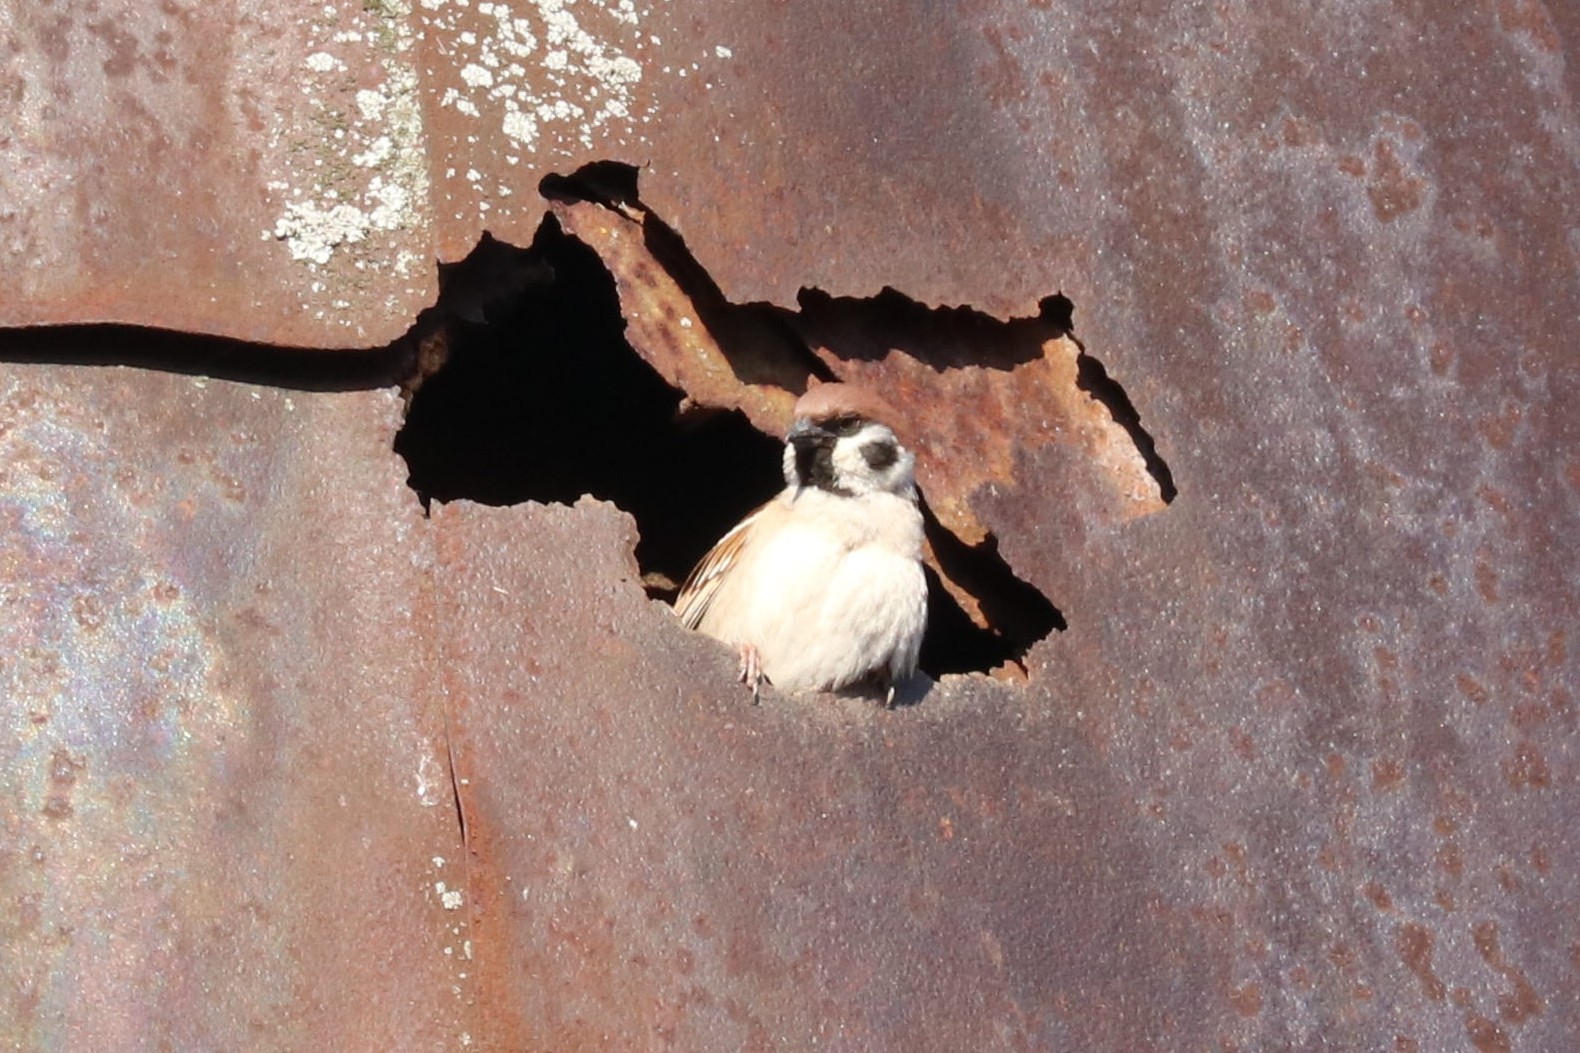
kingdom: Animalia
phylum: Chordata
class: Aves
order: Passeriformes
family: Passeridae
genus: Passer
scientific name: Passer montanus
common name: Eurasian tree sparrow
